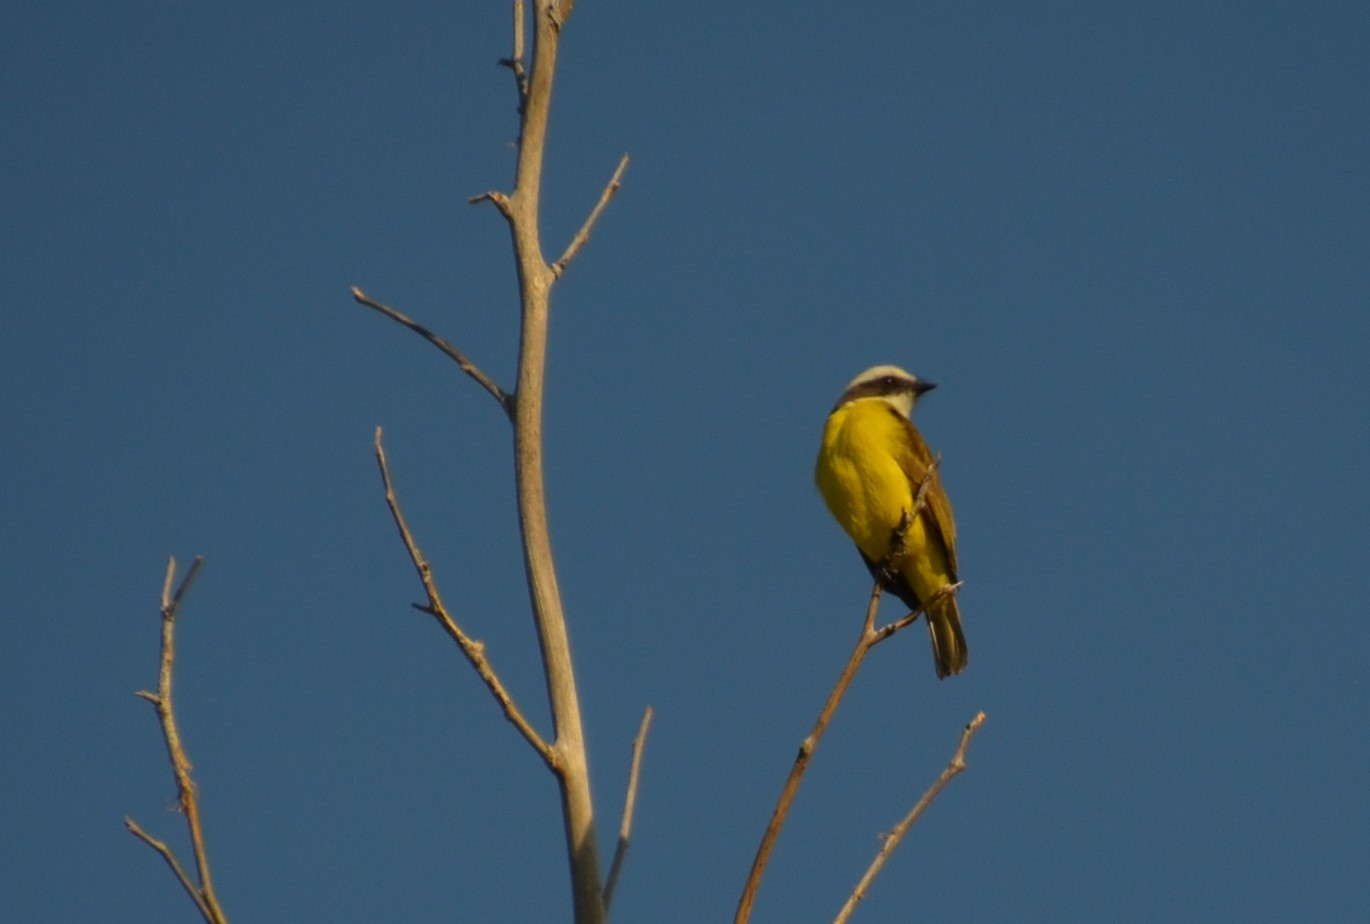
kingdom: Animalia
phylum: Chordata
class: Aves
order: Passeriformes
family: Tyrannidae
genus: Myiozetetes
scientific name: Myiozetetes similis
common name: Social flycatcher
